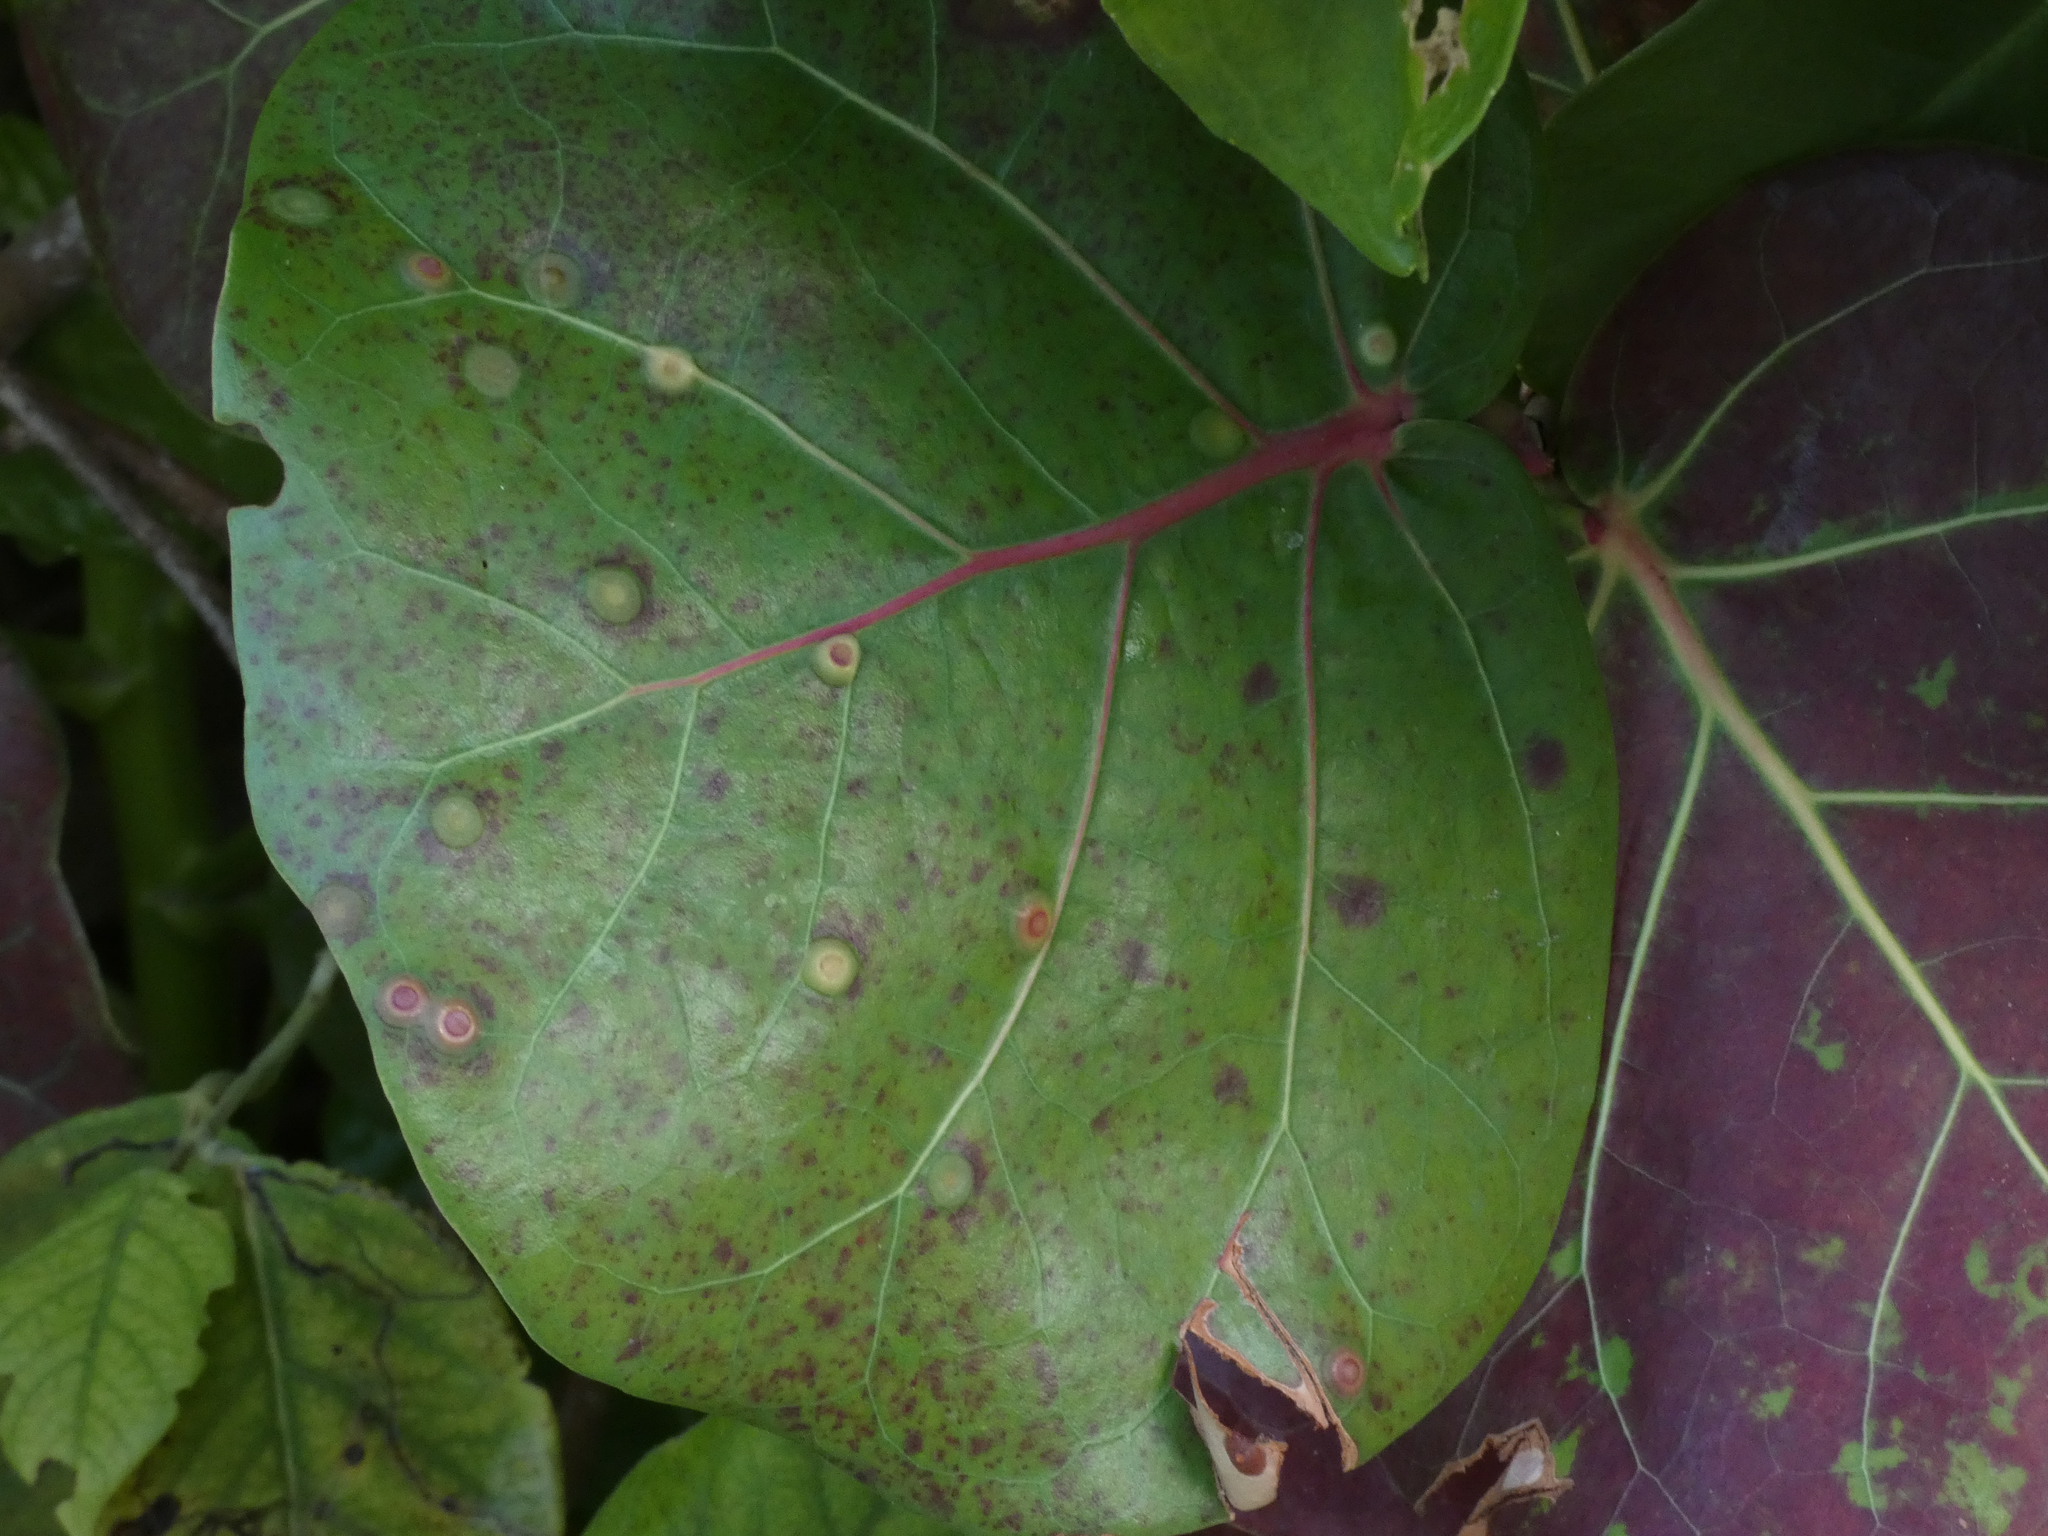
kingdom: Animalia
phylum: Arthropoda
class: Insecta
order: Diptera
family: Cecidomyiidae
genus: Ctenodactylomyia
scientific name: Ctenodactylomyia watsoni
